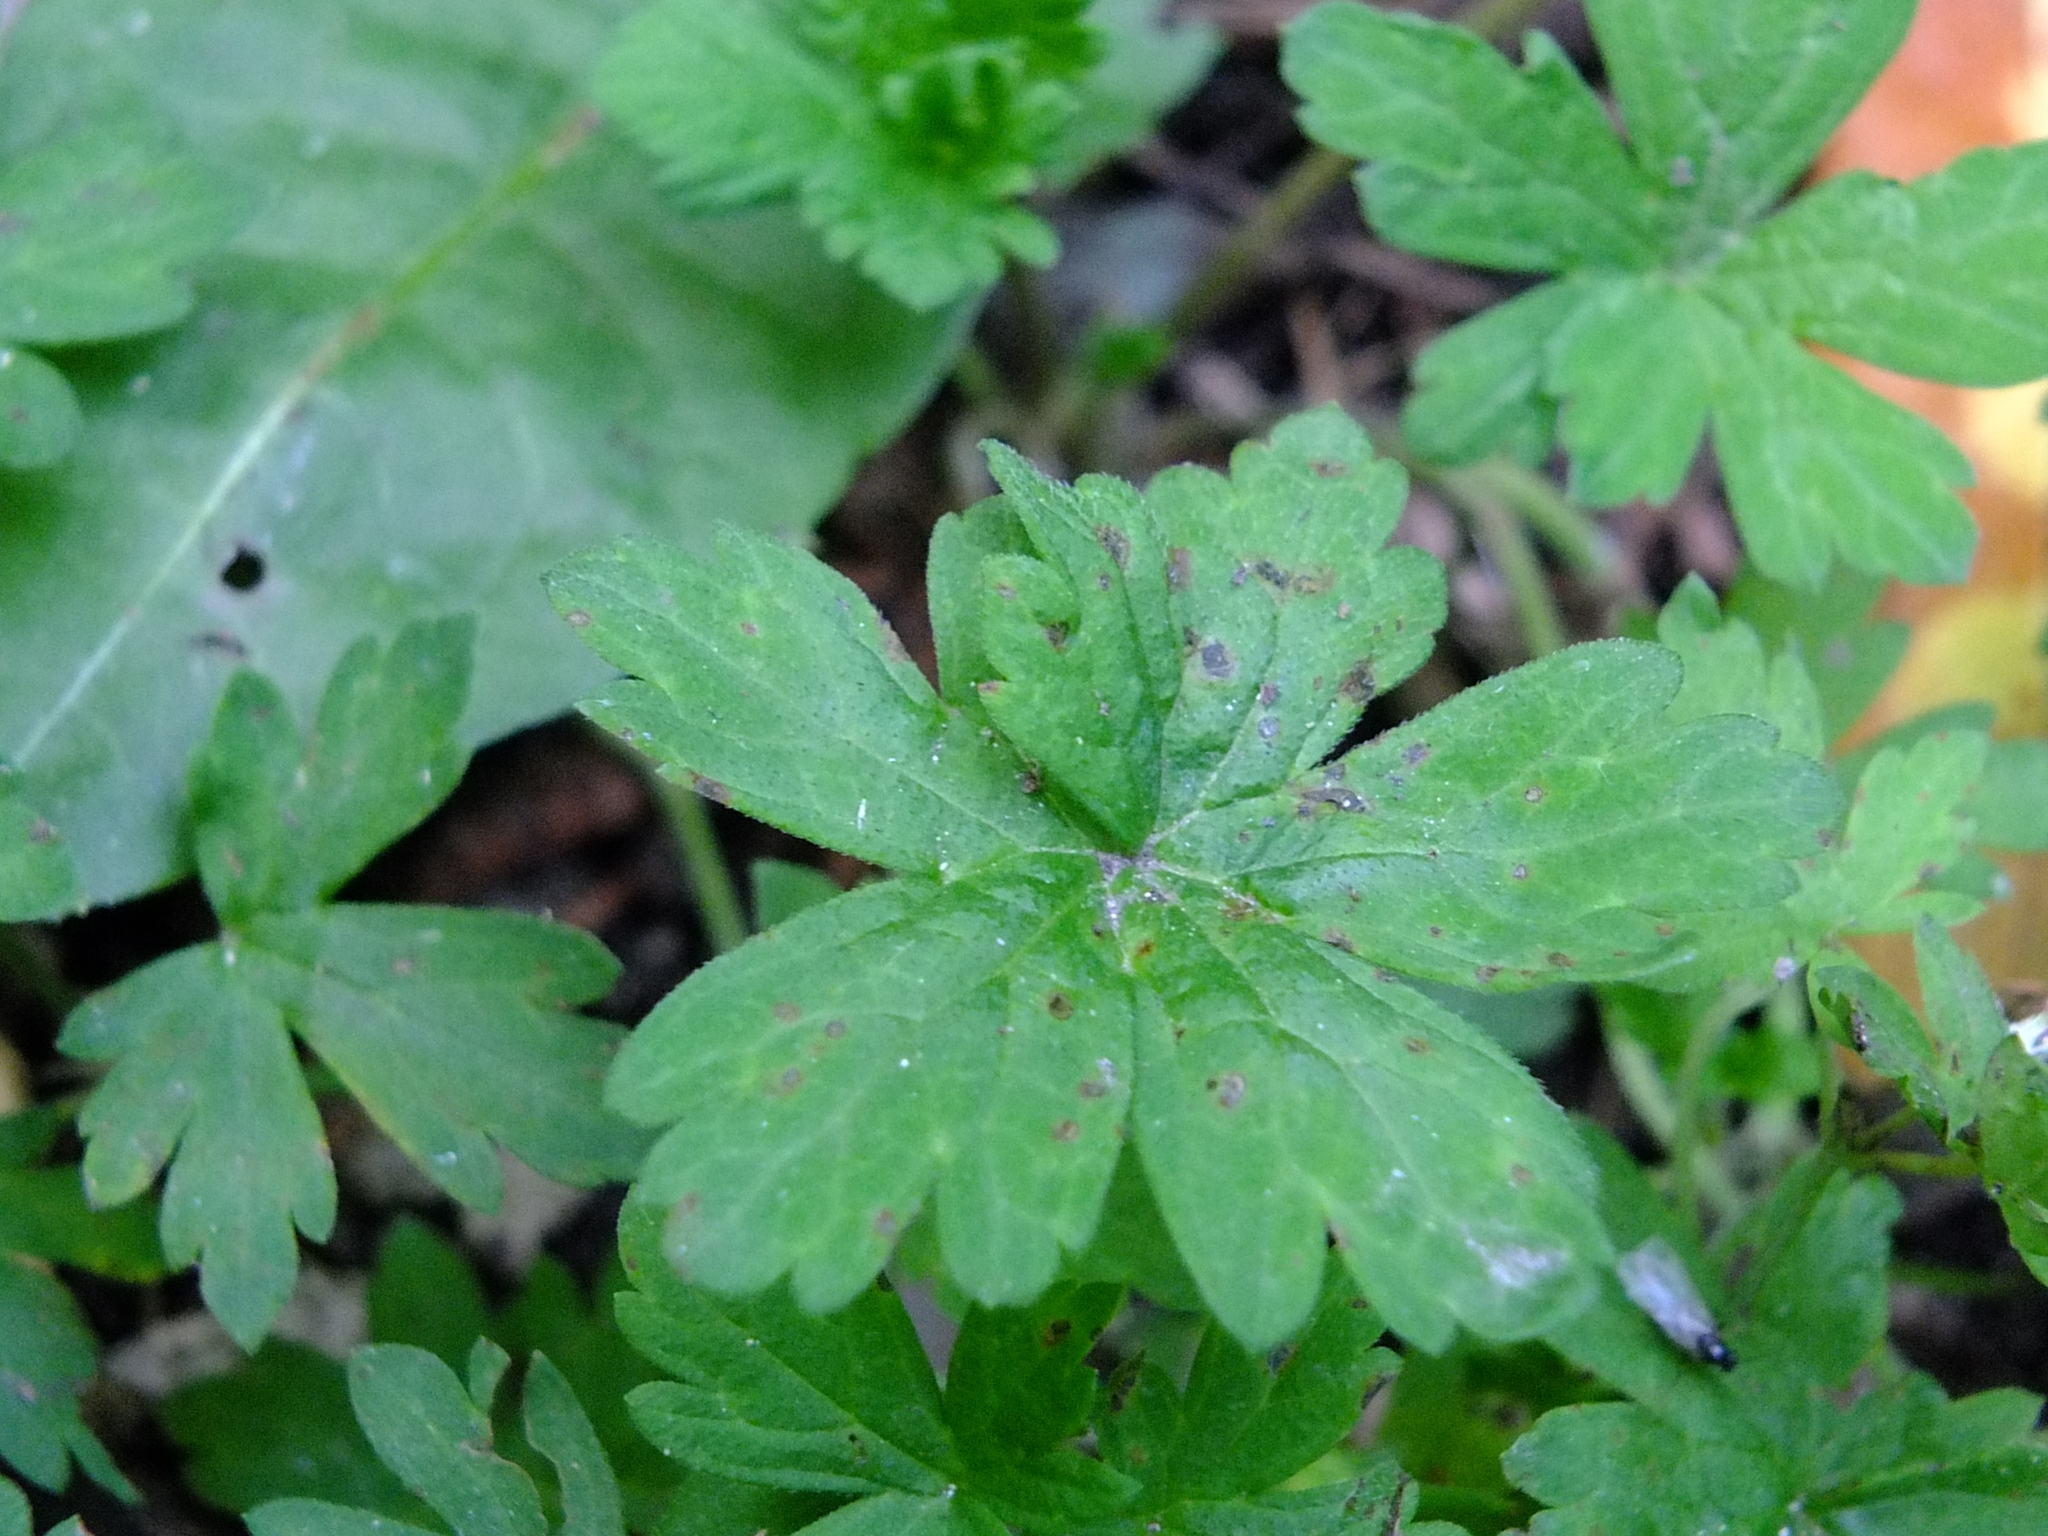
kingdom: Plantae
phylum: Tracheophyta
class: Magnoliopsida
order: Geraniales
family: Geraniaceae
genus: Geranium
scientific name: Geranium sibiricum
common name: Siberian crane's-bill
